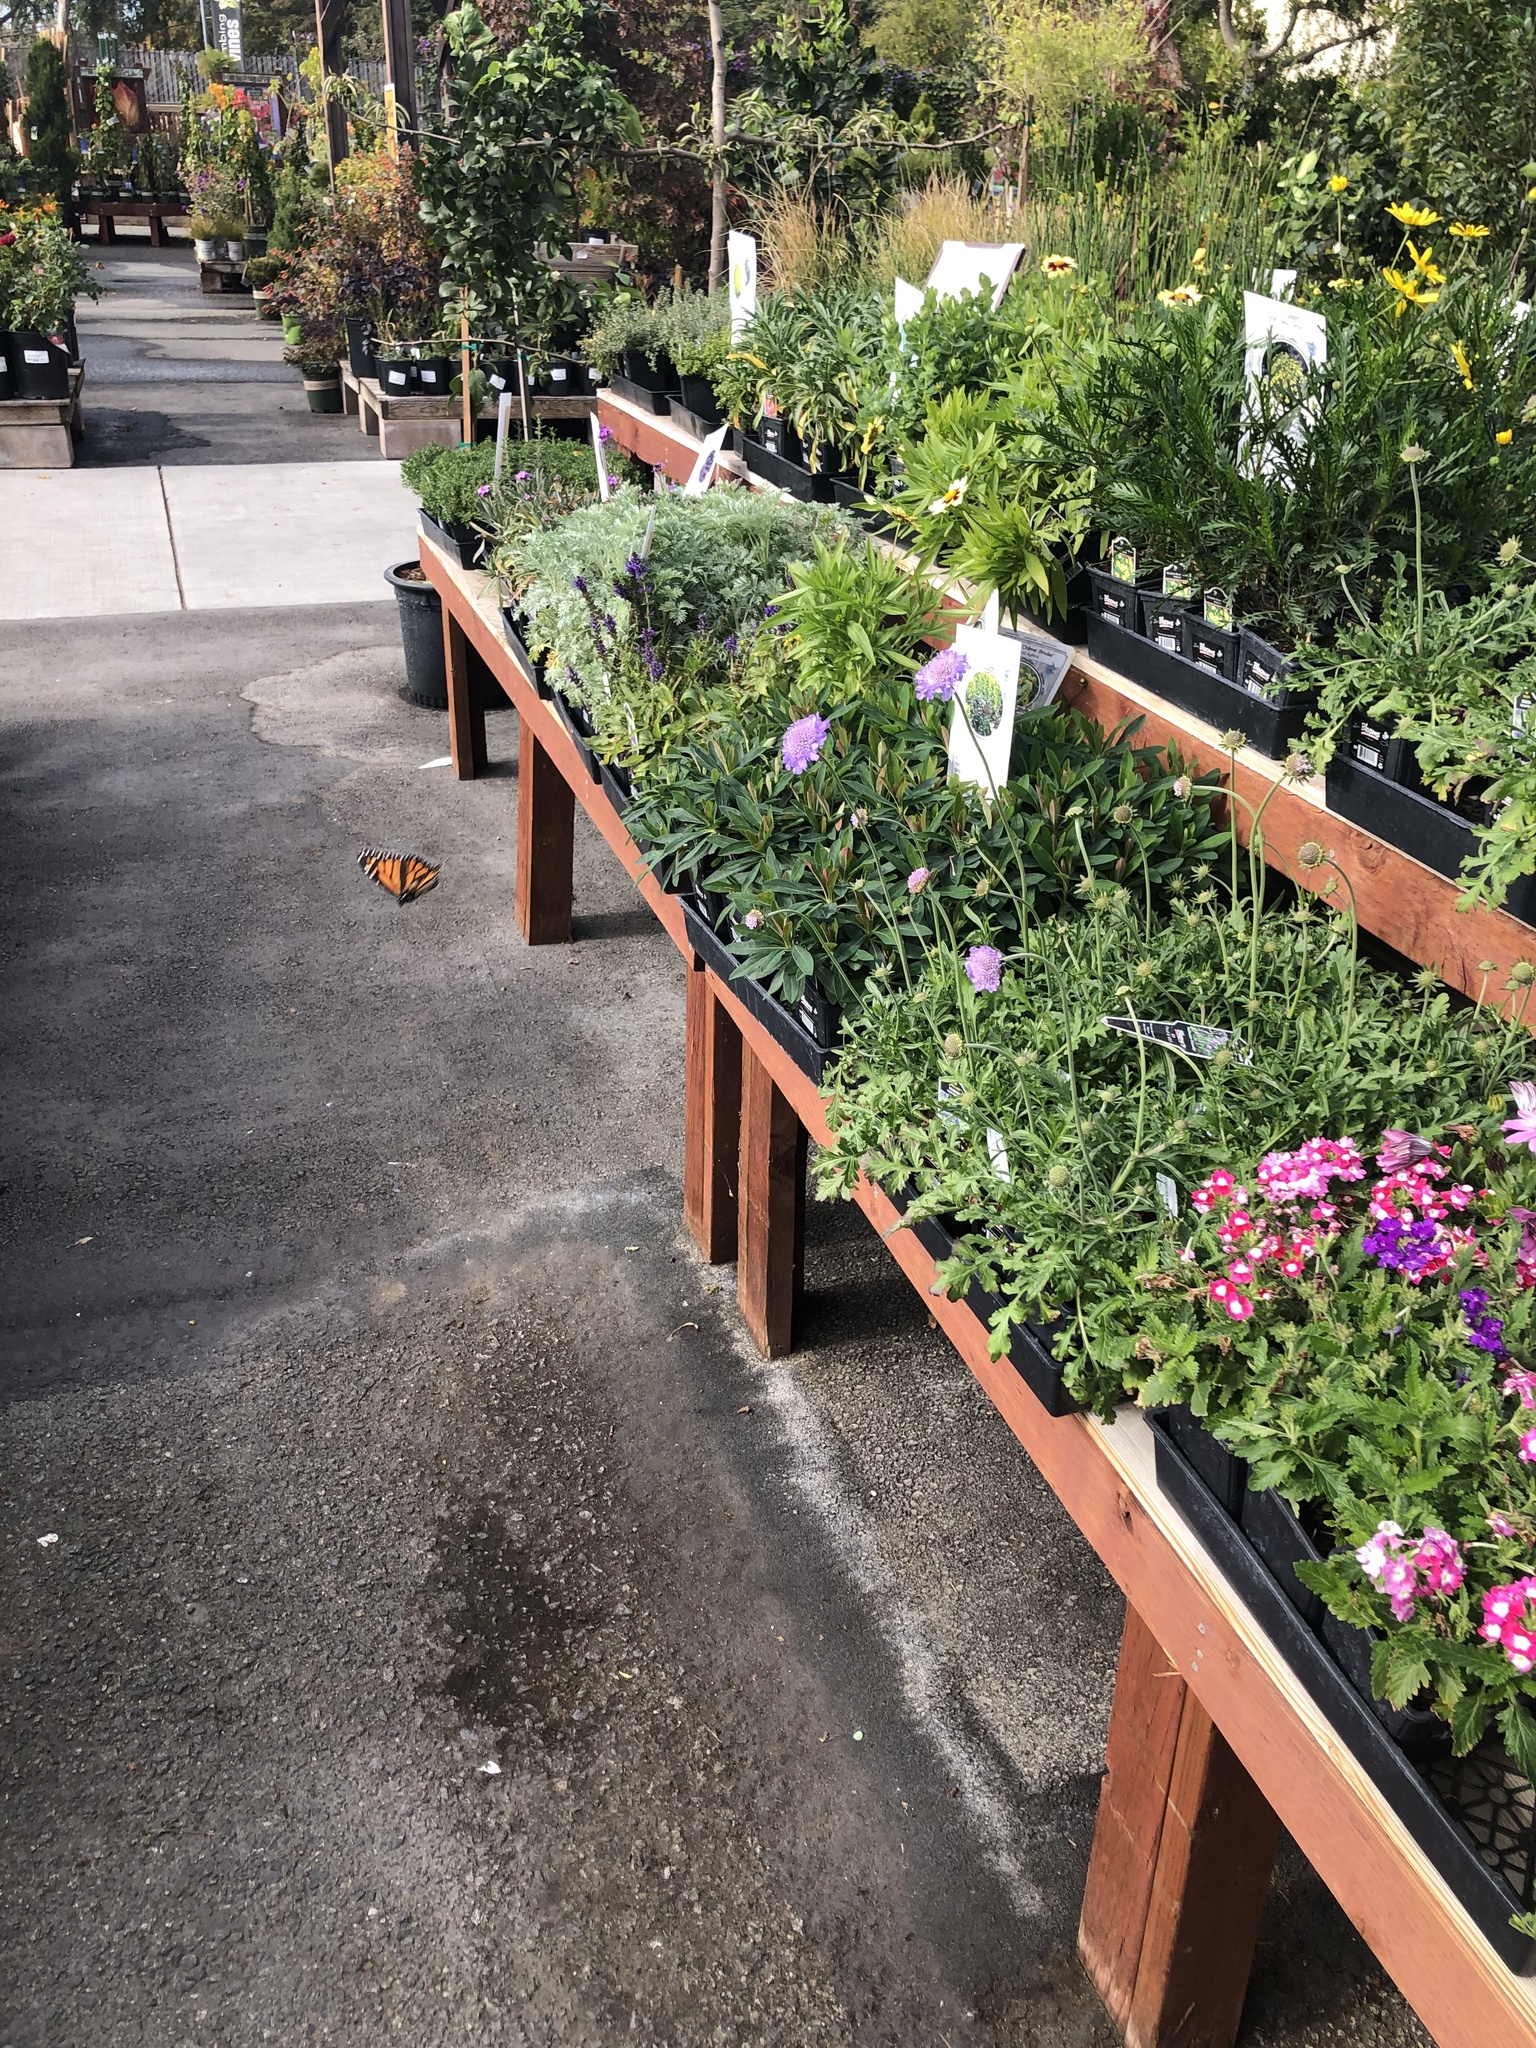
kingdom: Animalia
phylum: Arthropoda
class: Insecta
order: Lepidoptera
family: Nymphalidae
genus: Danaus
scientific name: Danaus plexippus
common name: Monarch
